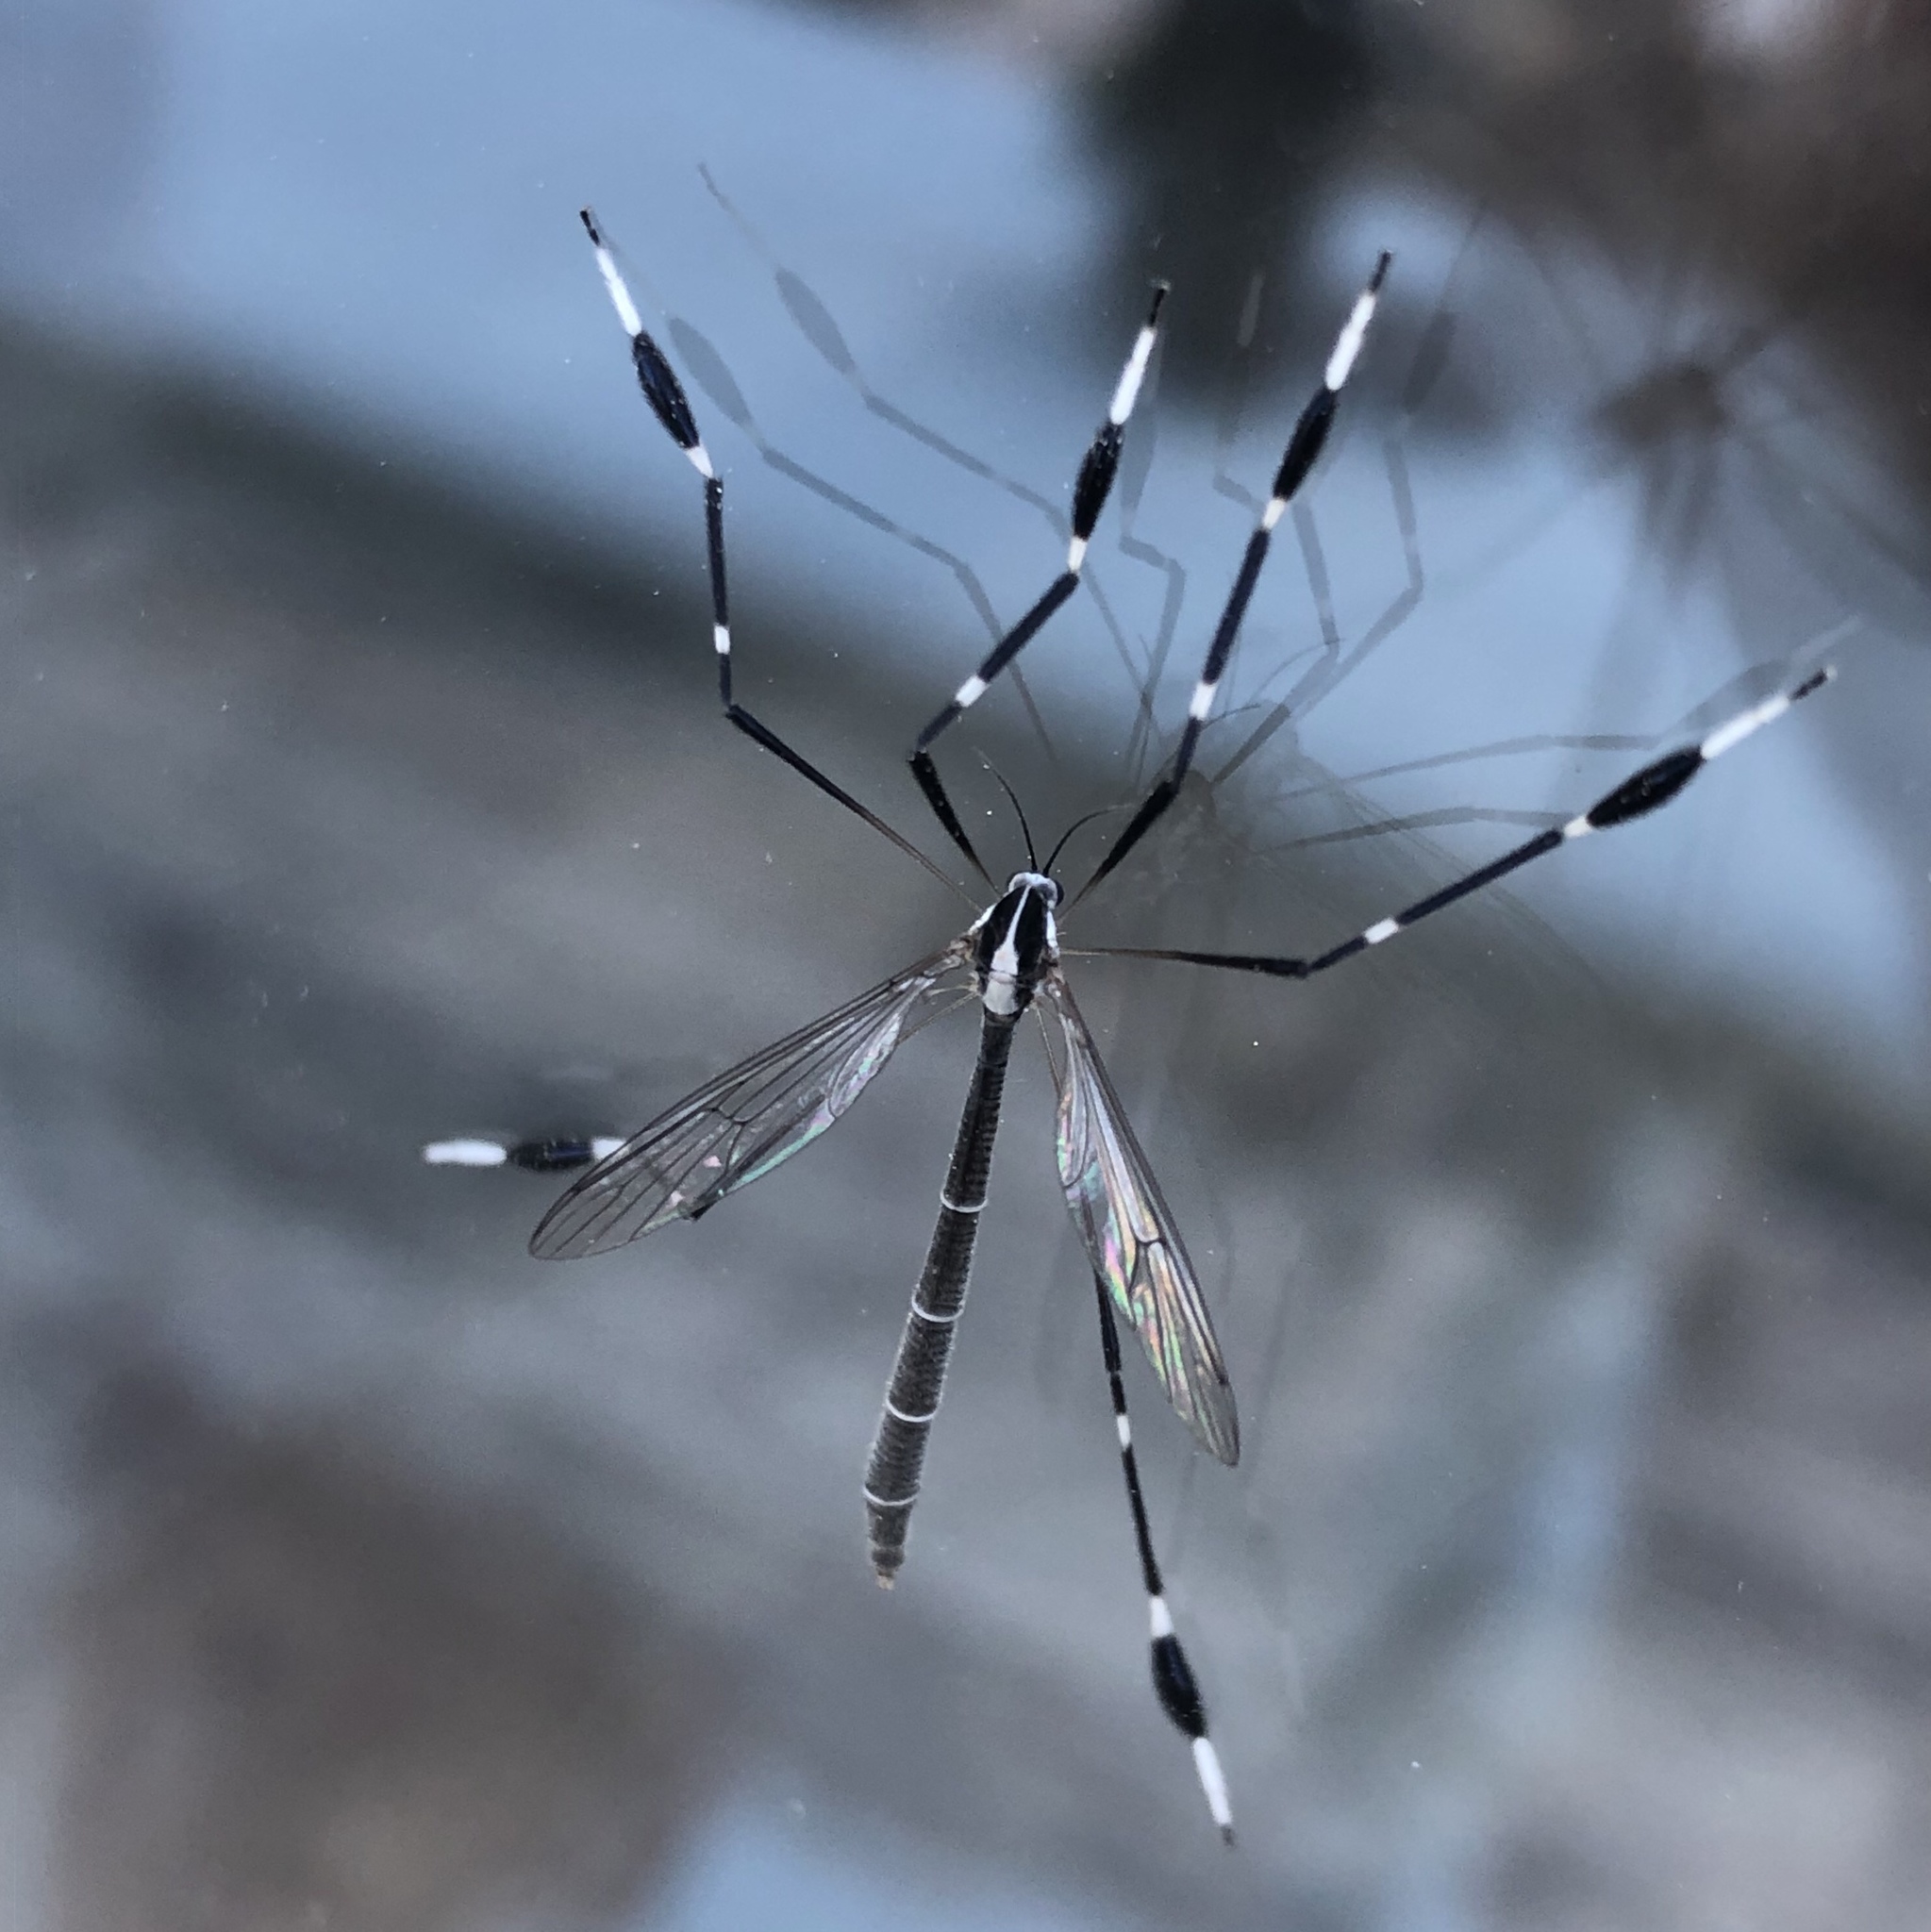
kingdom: Animalia
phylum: Arthropoda
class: Insecta
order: Diptera
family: Ptychopteridae
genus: Bittacomorpha
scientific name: Bittacomorpha clavipes
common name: Eastern phantom crane fly
